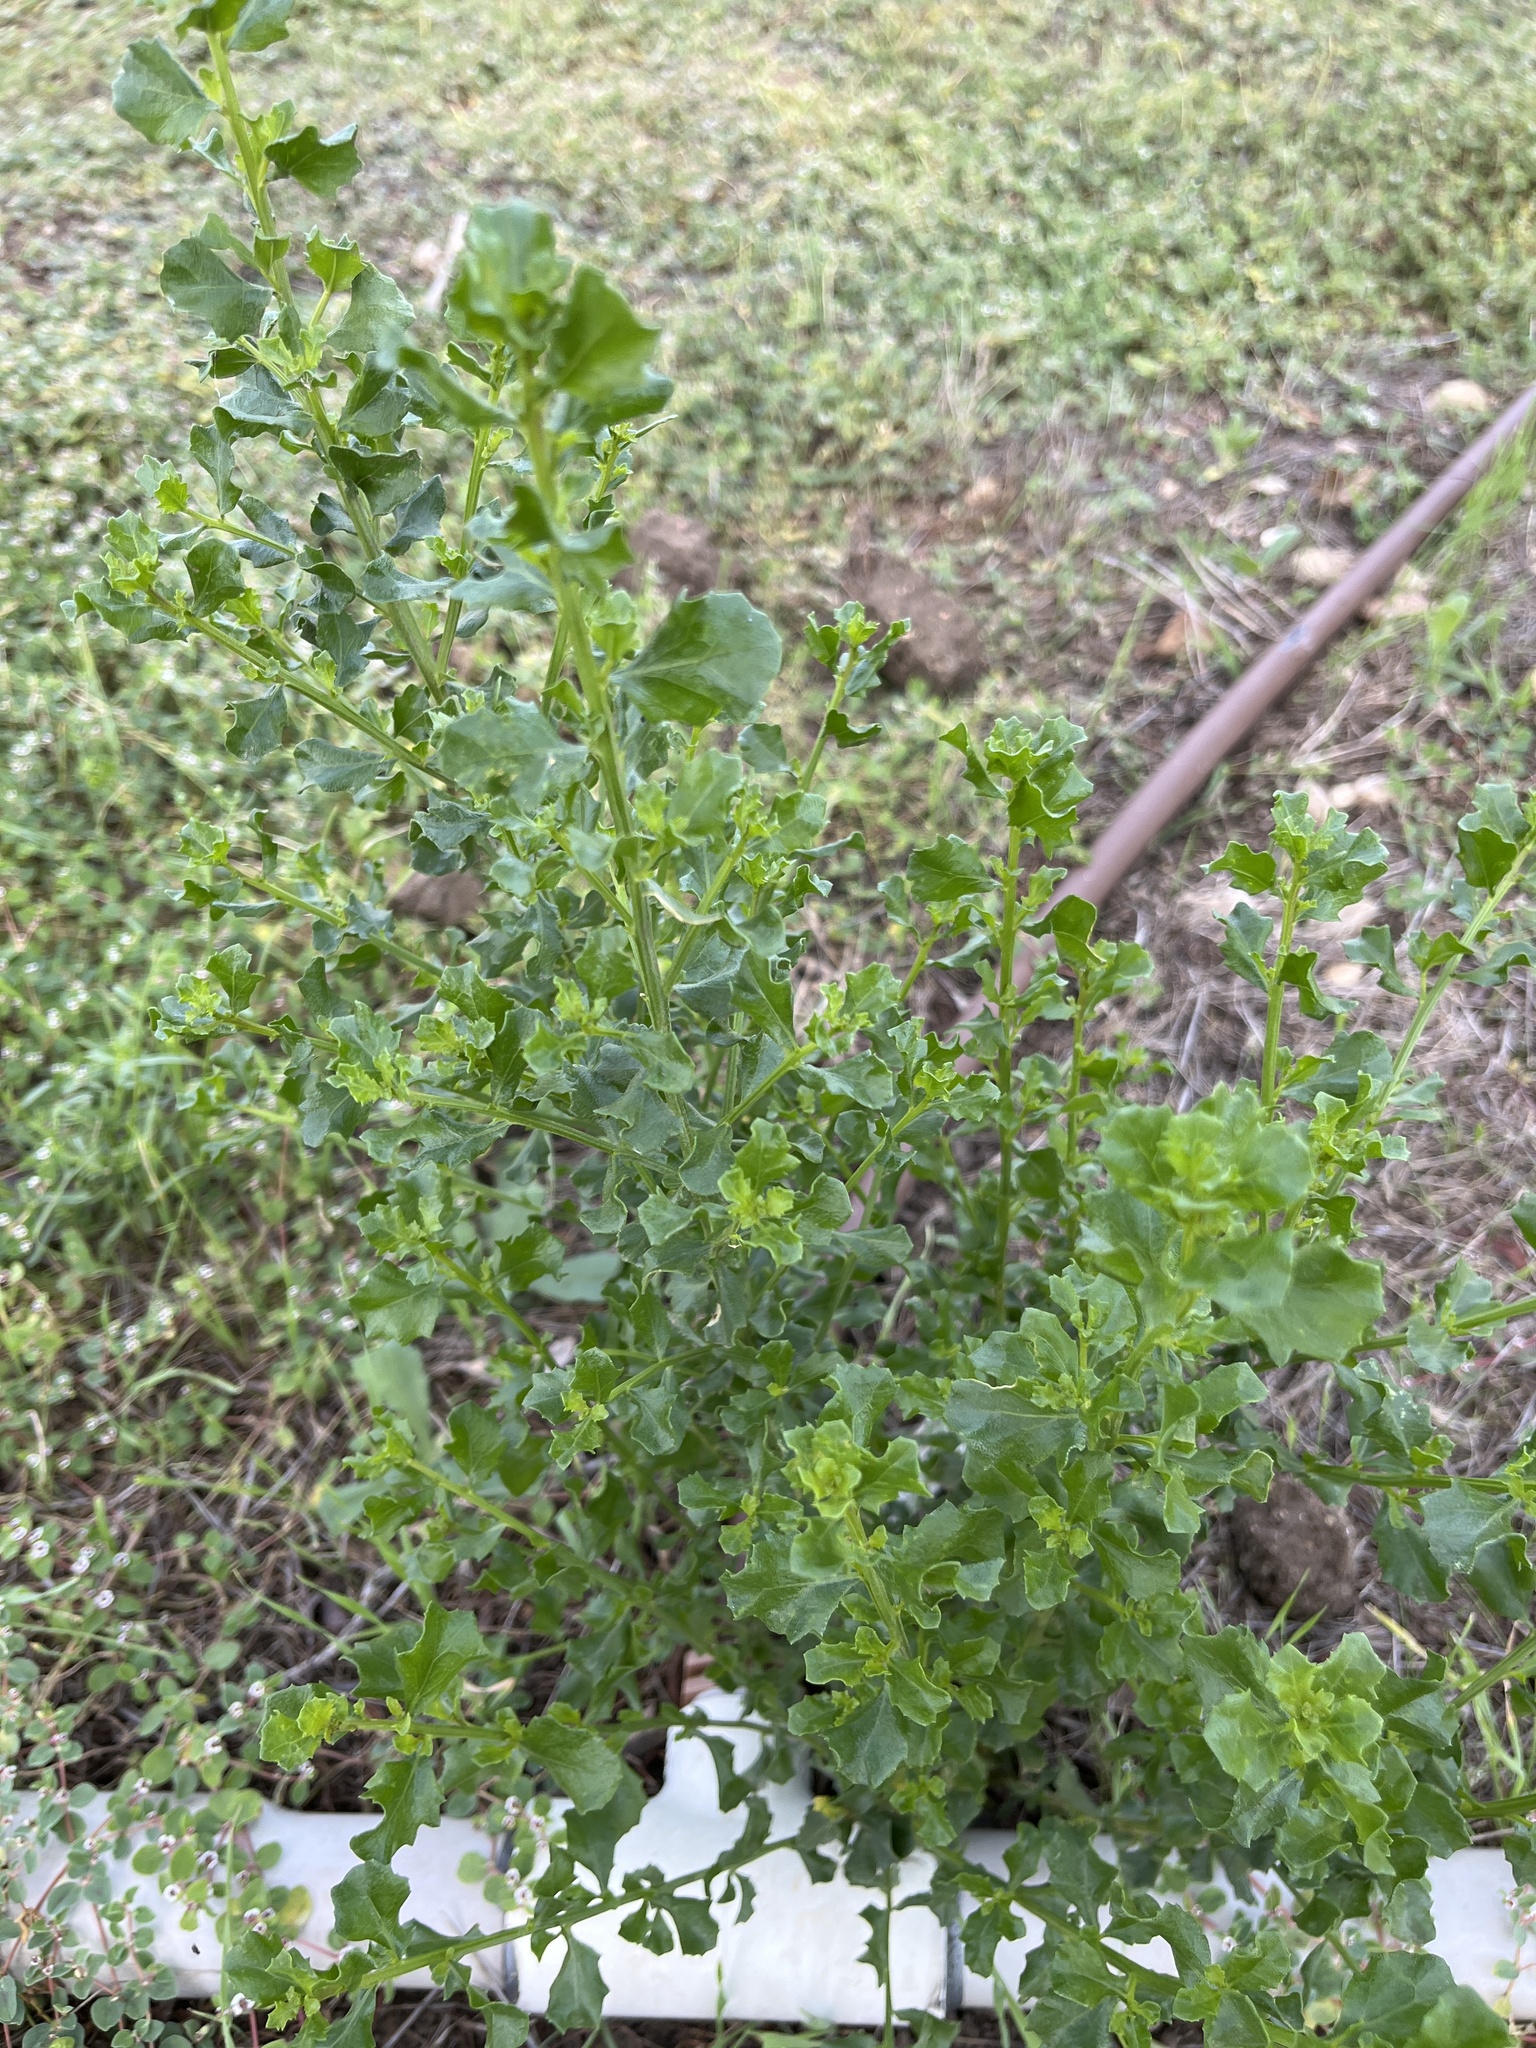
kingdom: Plantae
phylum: Tracheophyta
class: Magnoliopsida
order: Asterales
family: Asteraceae
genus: Baccharis
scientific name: Baccharis pilularis
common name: Coyotebrush
